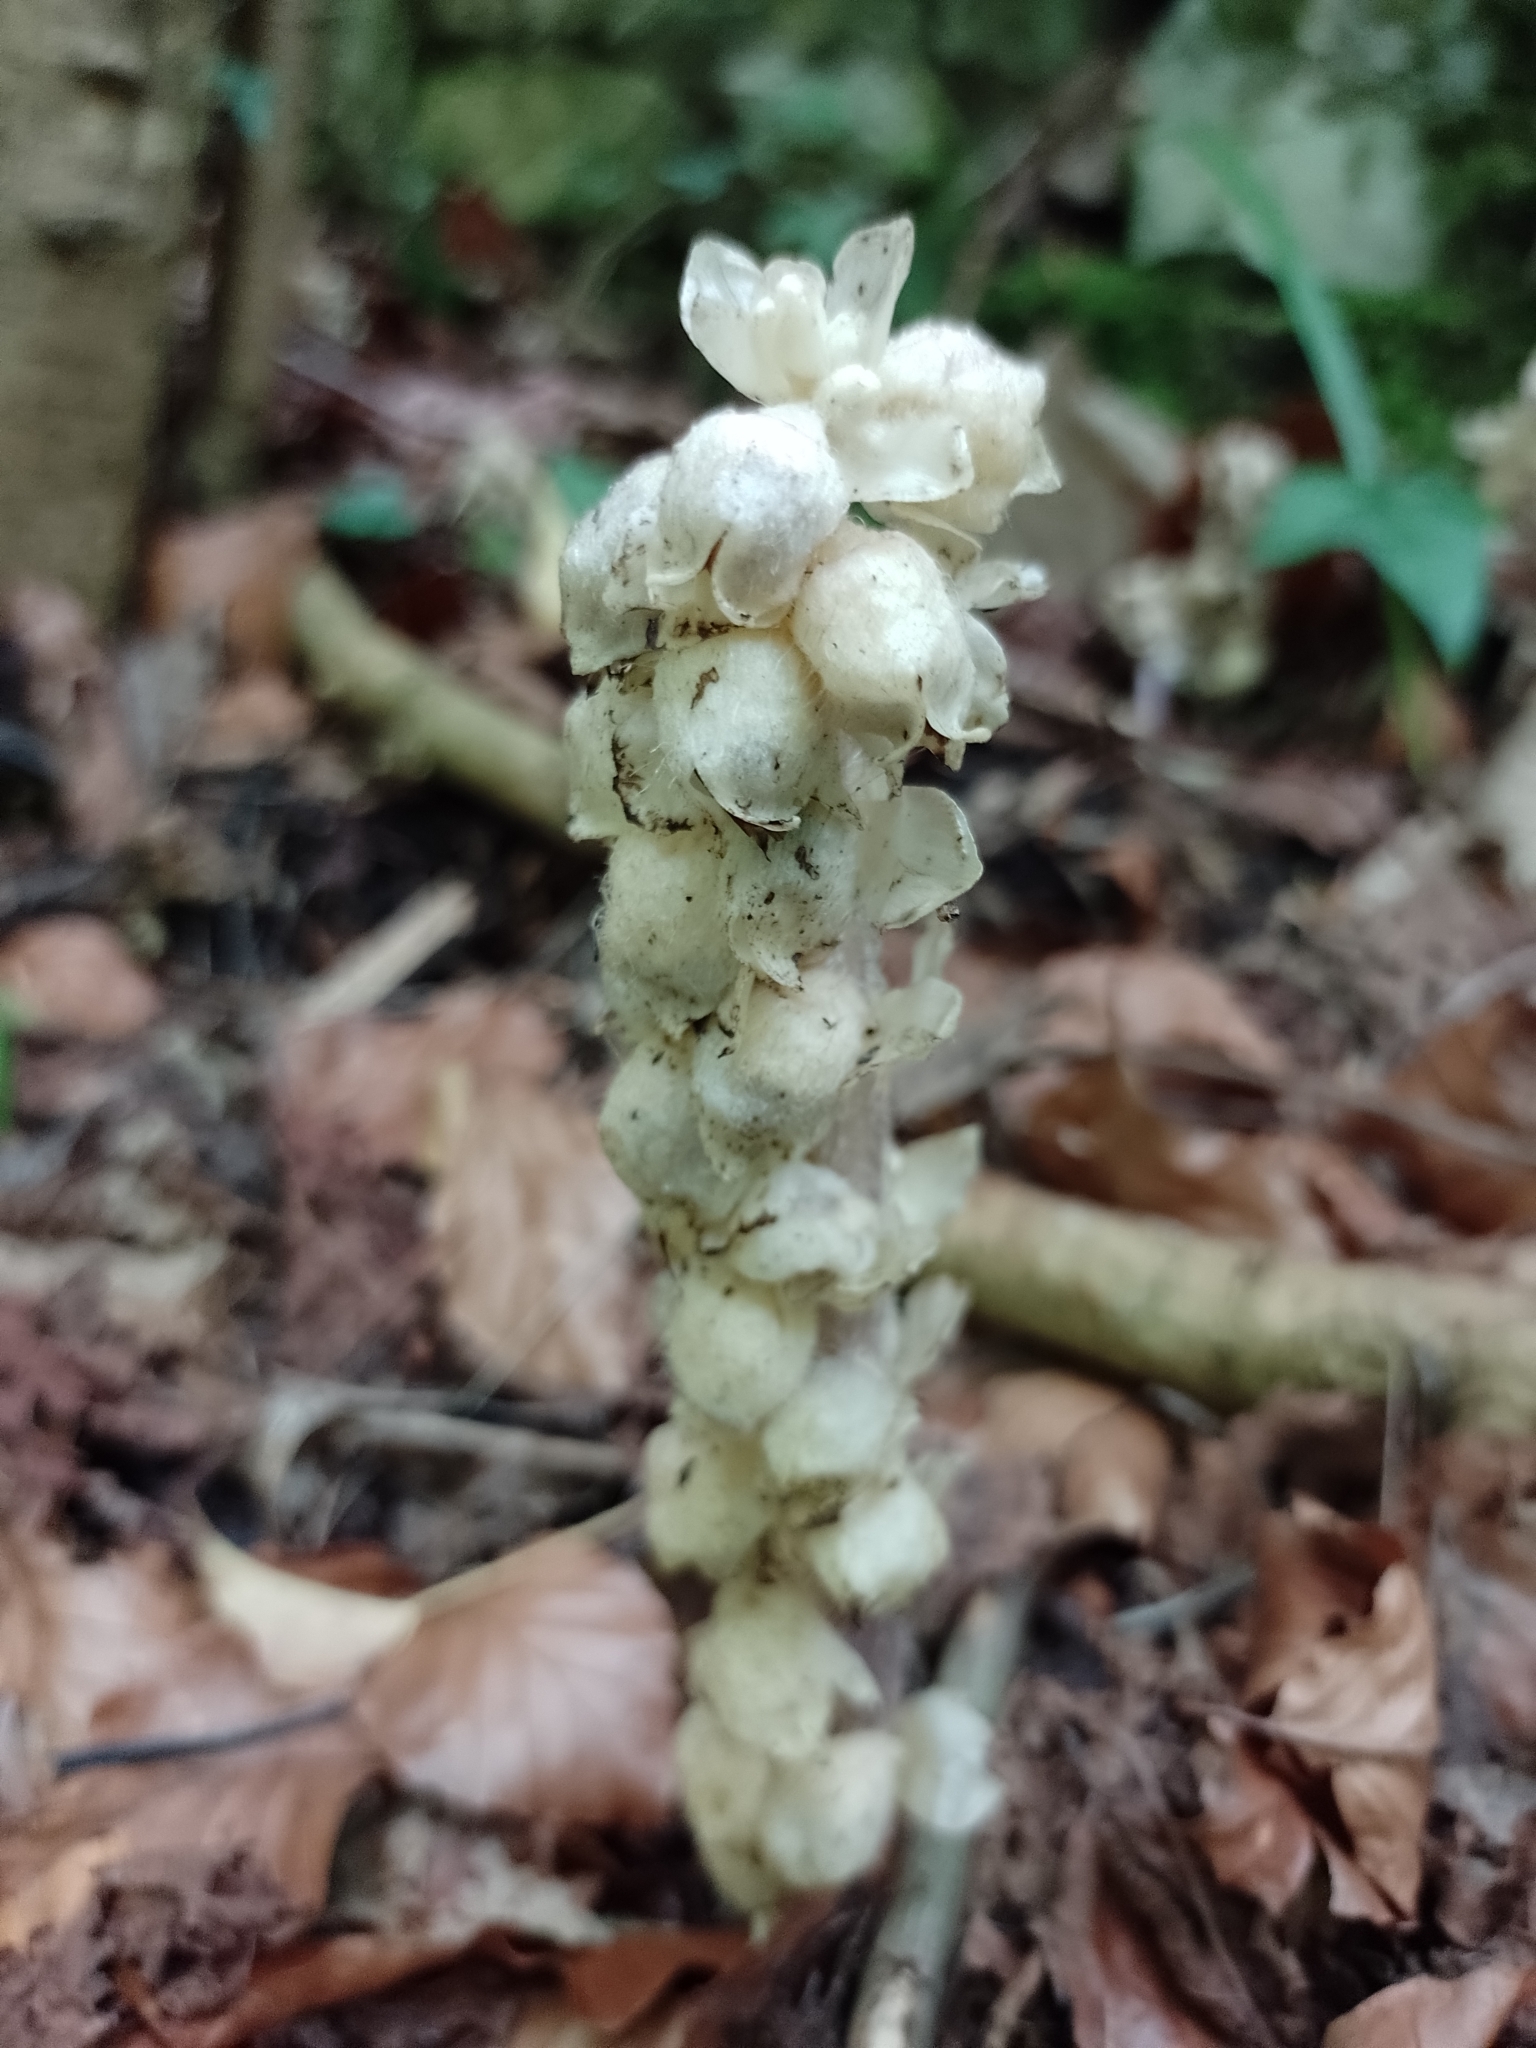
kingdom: Plantae
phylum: Tracheophyta
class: Magnoliopsida
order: Lamiales
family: Orobanchaceae
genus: Lathraea
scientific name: Lathraea squamaria
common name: Toothwort
